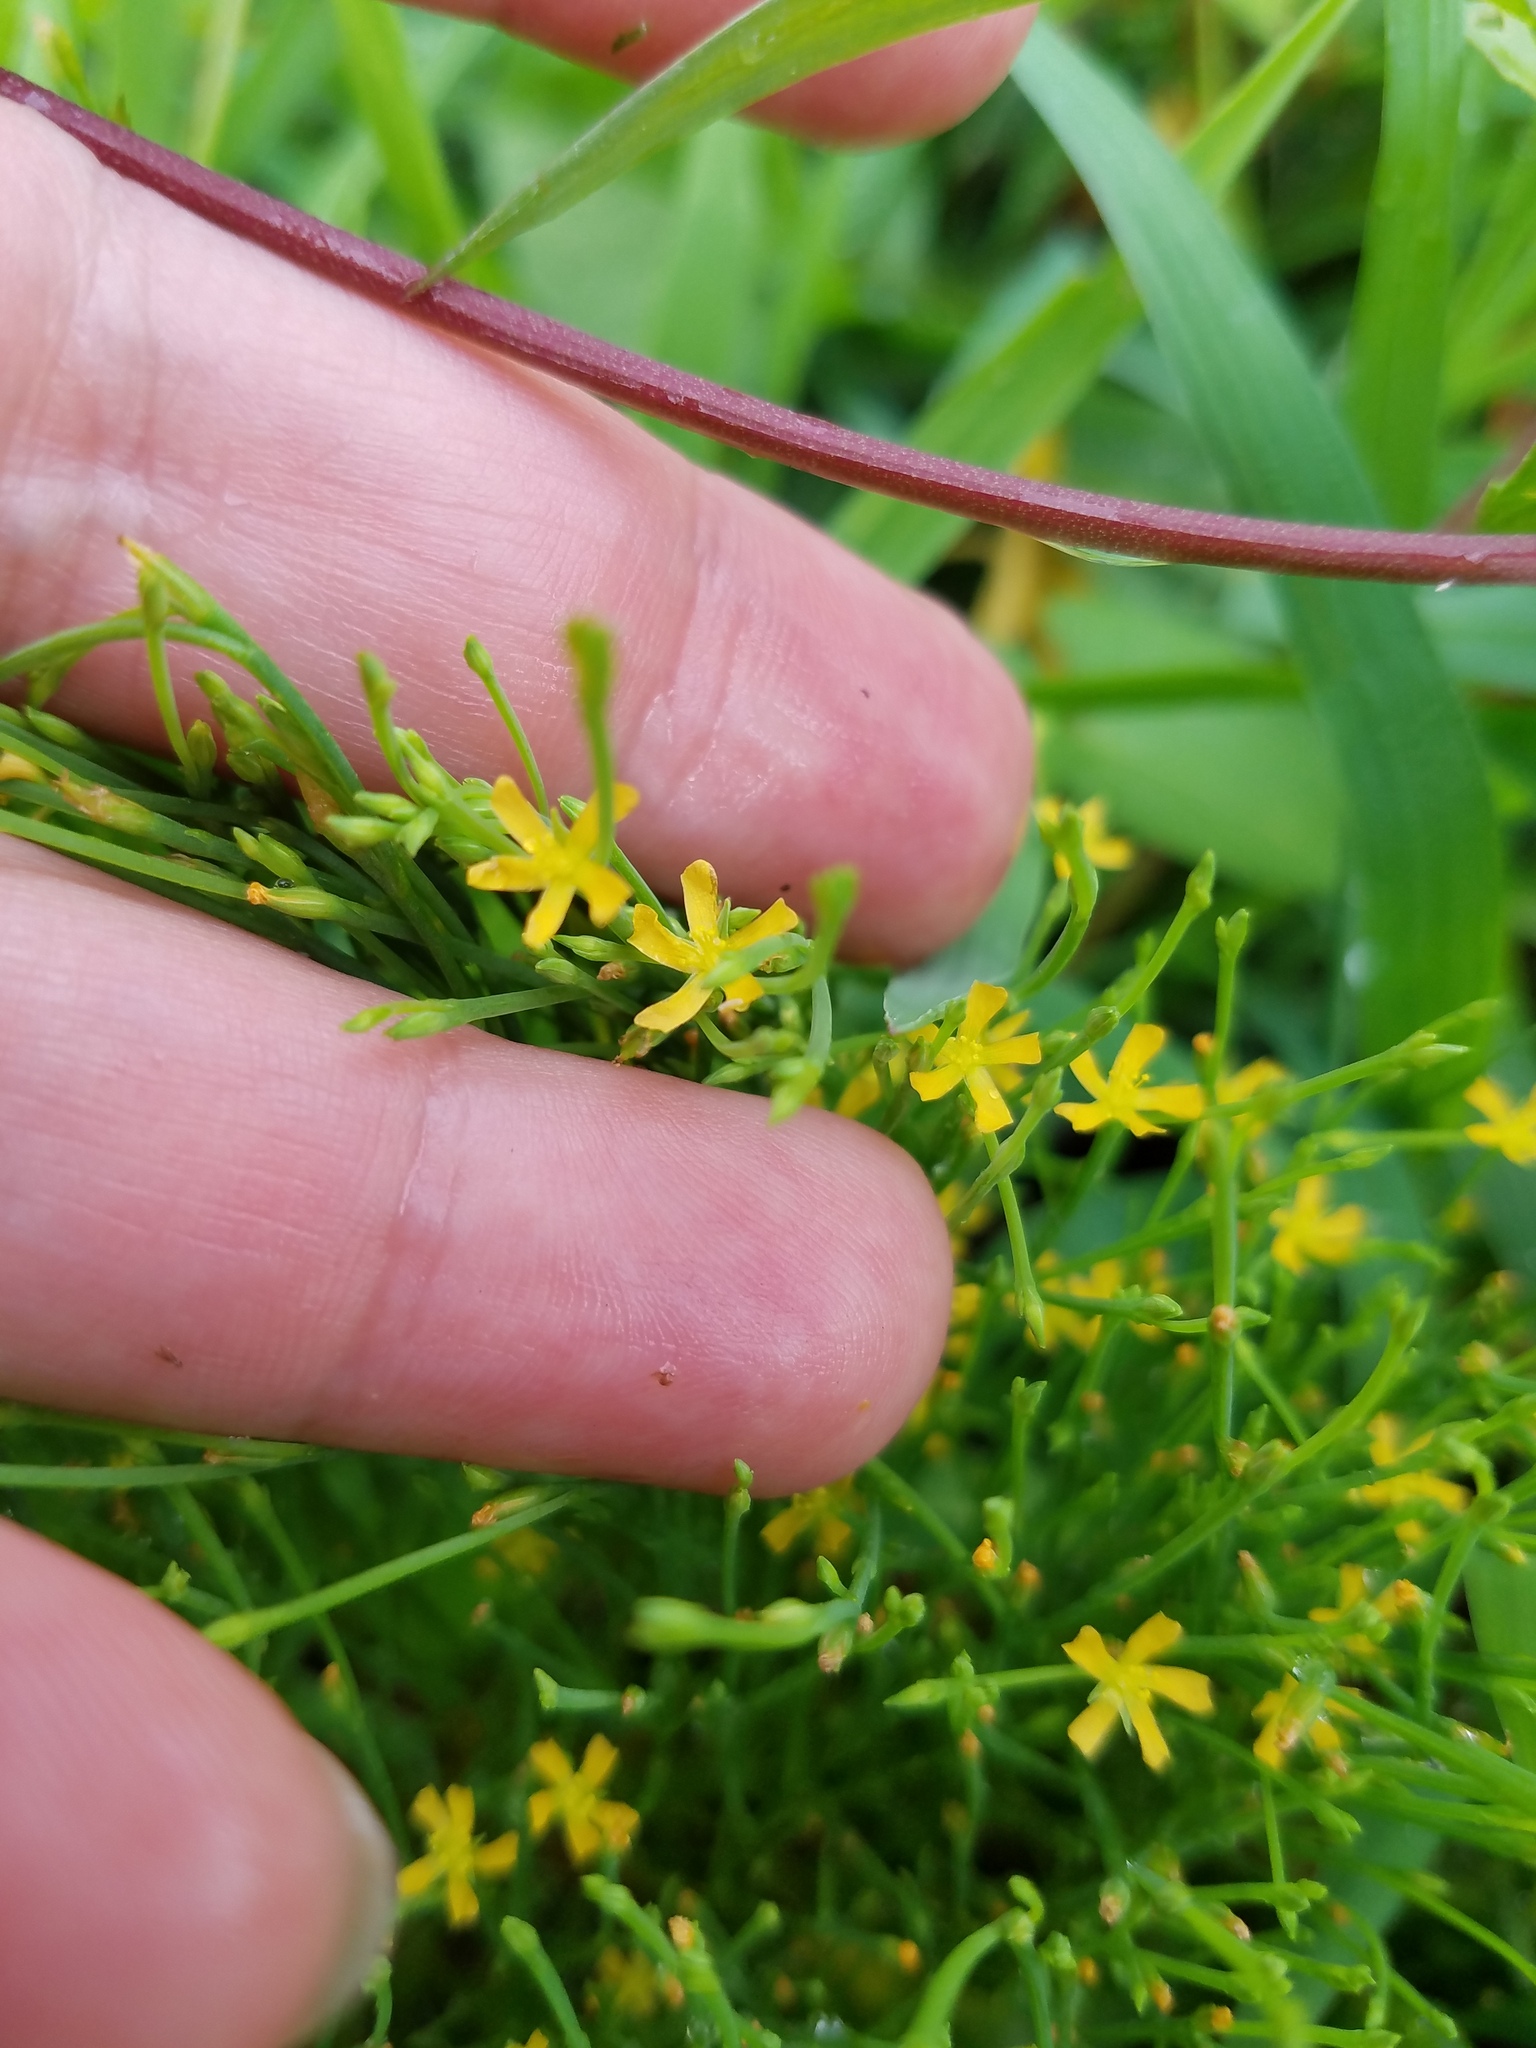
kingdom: Plantae
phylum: Tracheophyta
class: Magnoliopsida
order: Malpighiales
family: Hypericaceae
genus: Hypericum
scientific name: Hypericum gentianoides
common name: Gentian-leaved st. john's-wort
